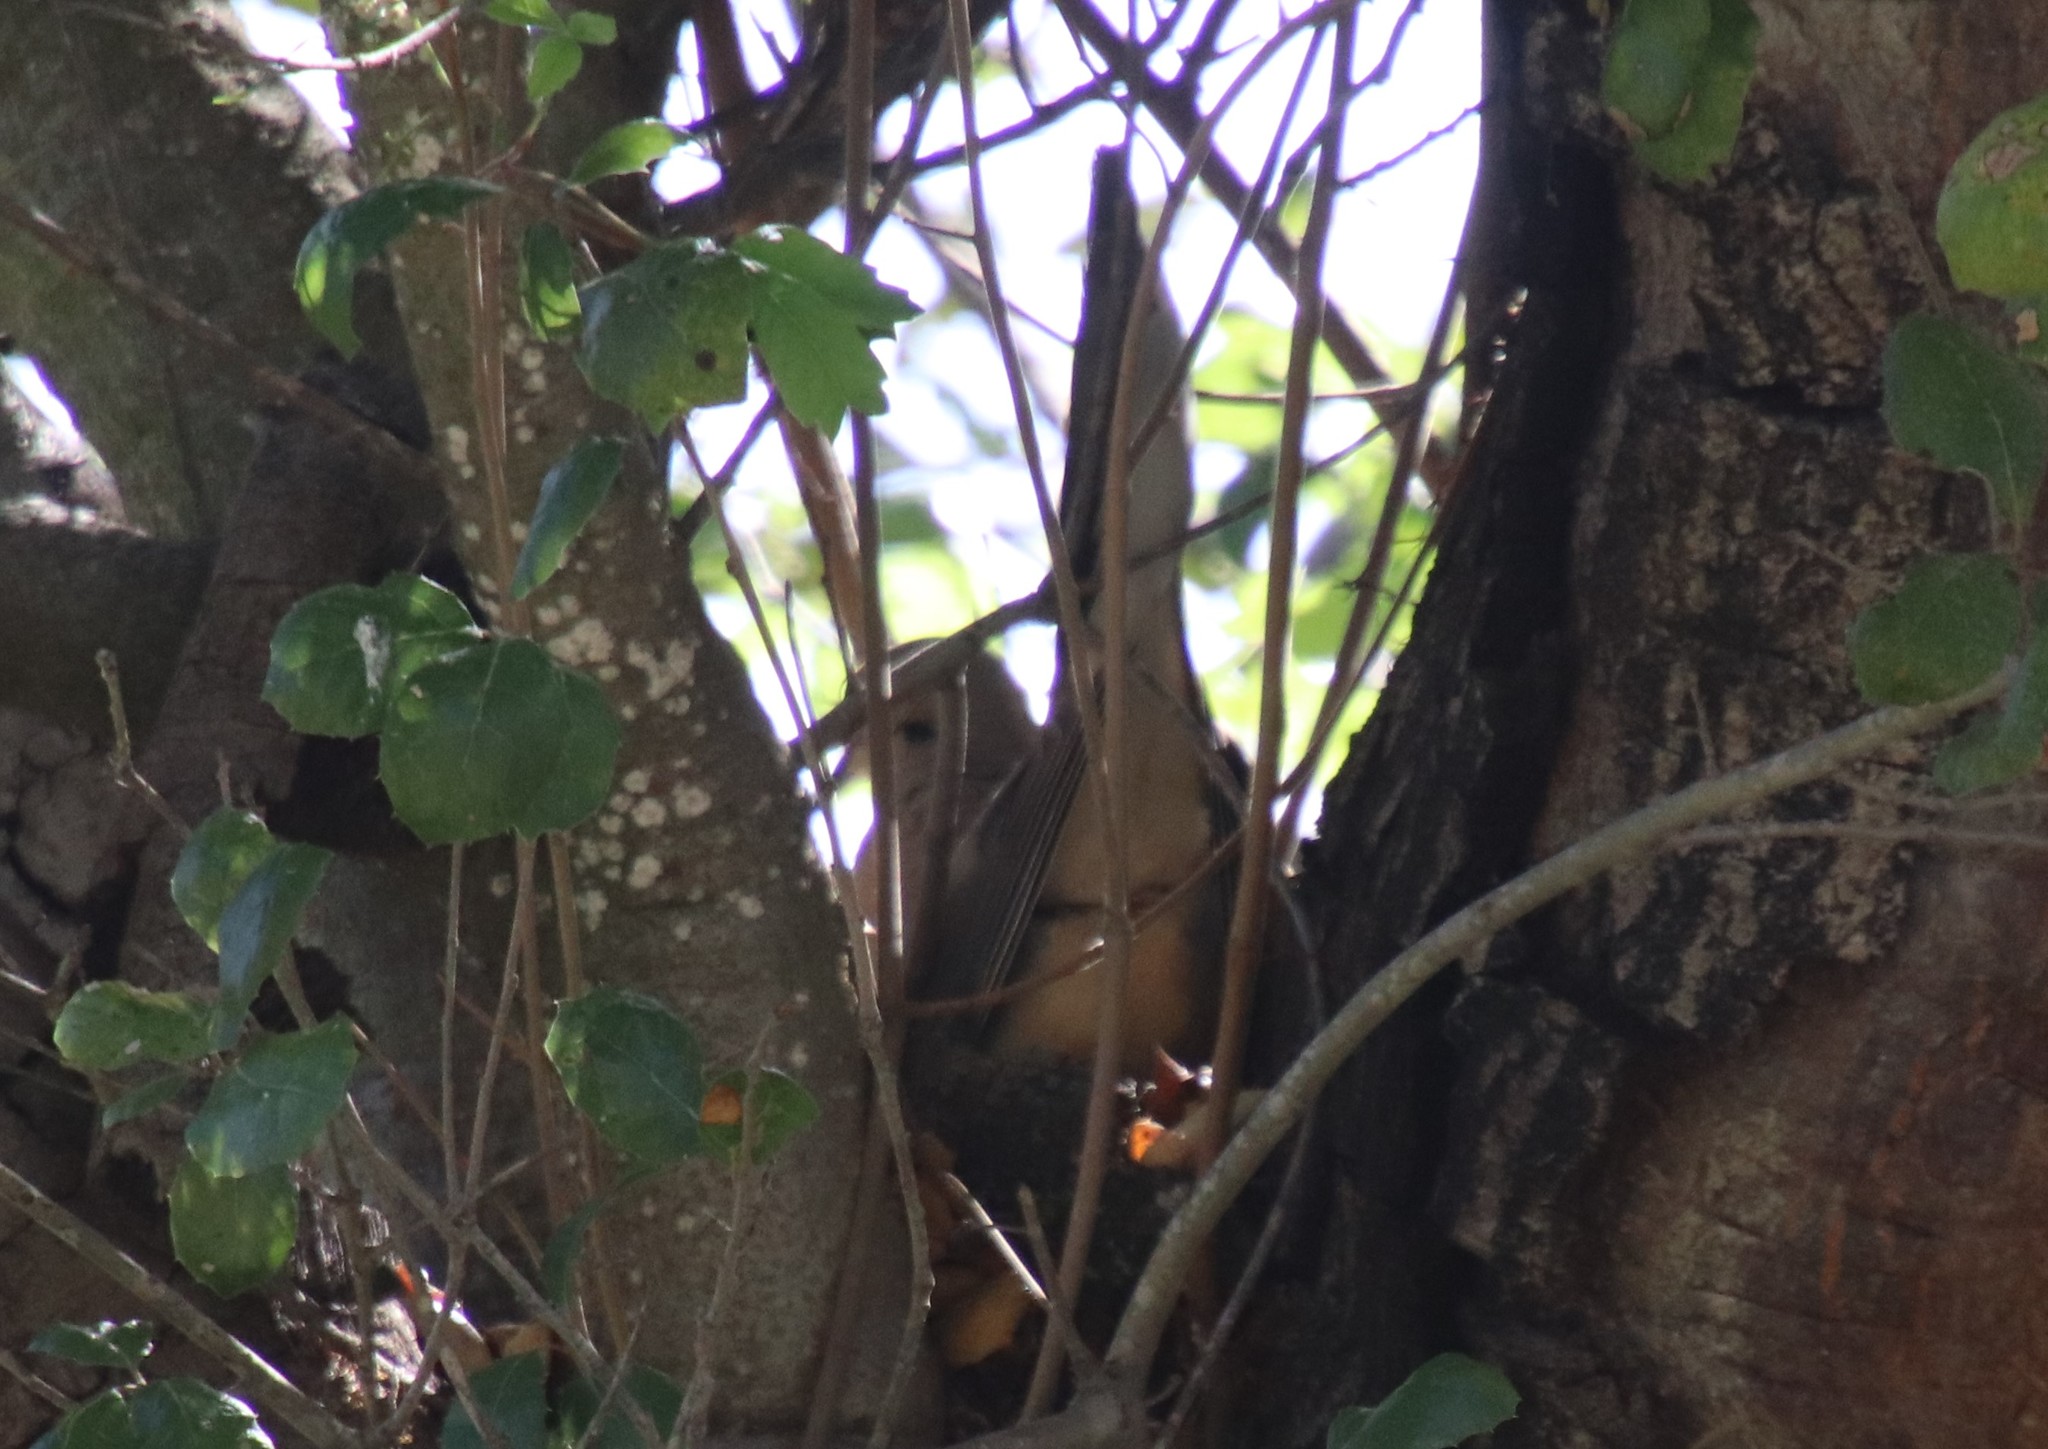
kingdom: Animalia
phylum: Chordata
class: Aves
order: Columbiformes
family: Columbidae
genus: Zenaida
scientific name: Zenaida macroura
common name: Mourning dove
